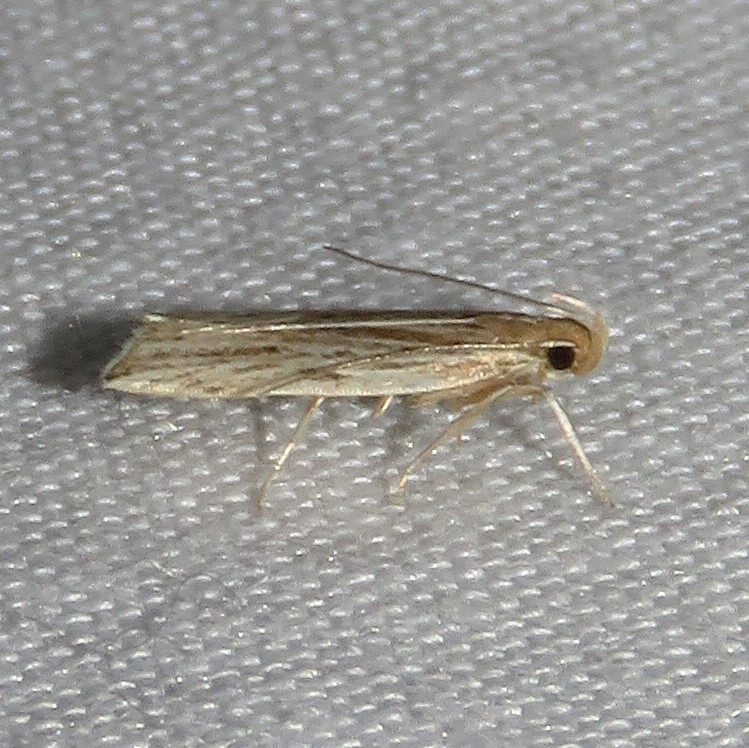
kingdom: Animalia
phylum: Arthropoda
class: Insecta
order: Lepidoptera
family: Gelechiidae
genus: Helcystogramma
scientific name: Helcystogramma hystricella
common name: Lanceolate moth
